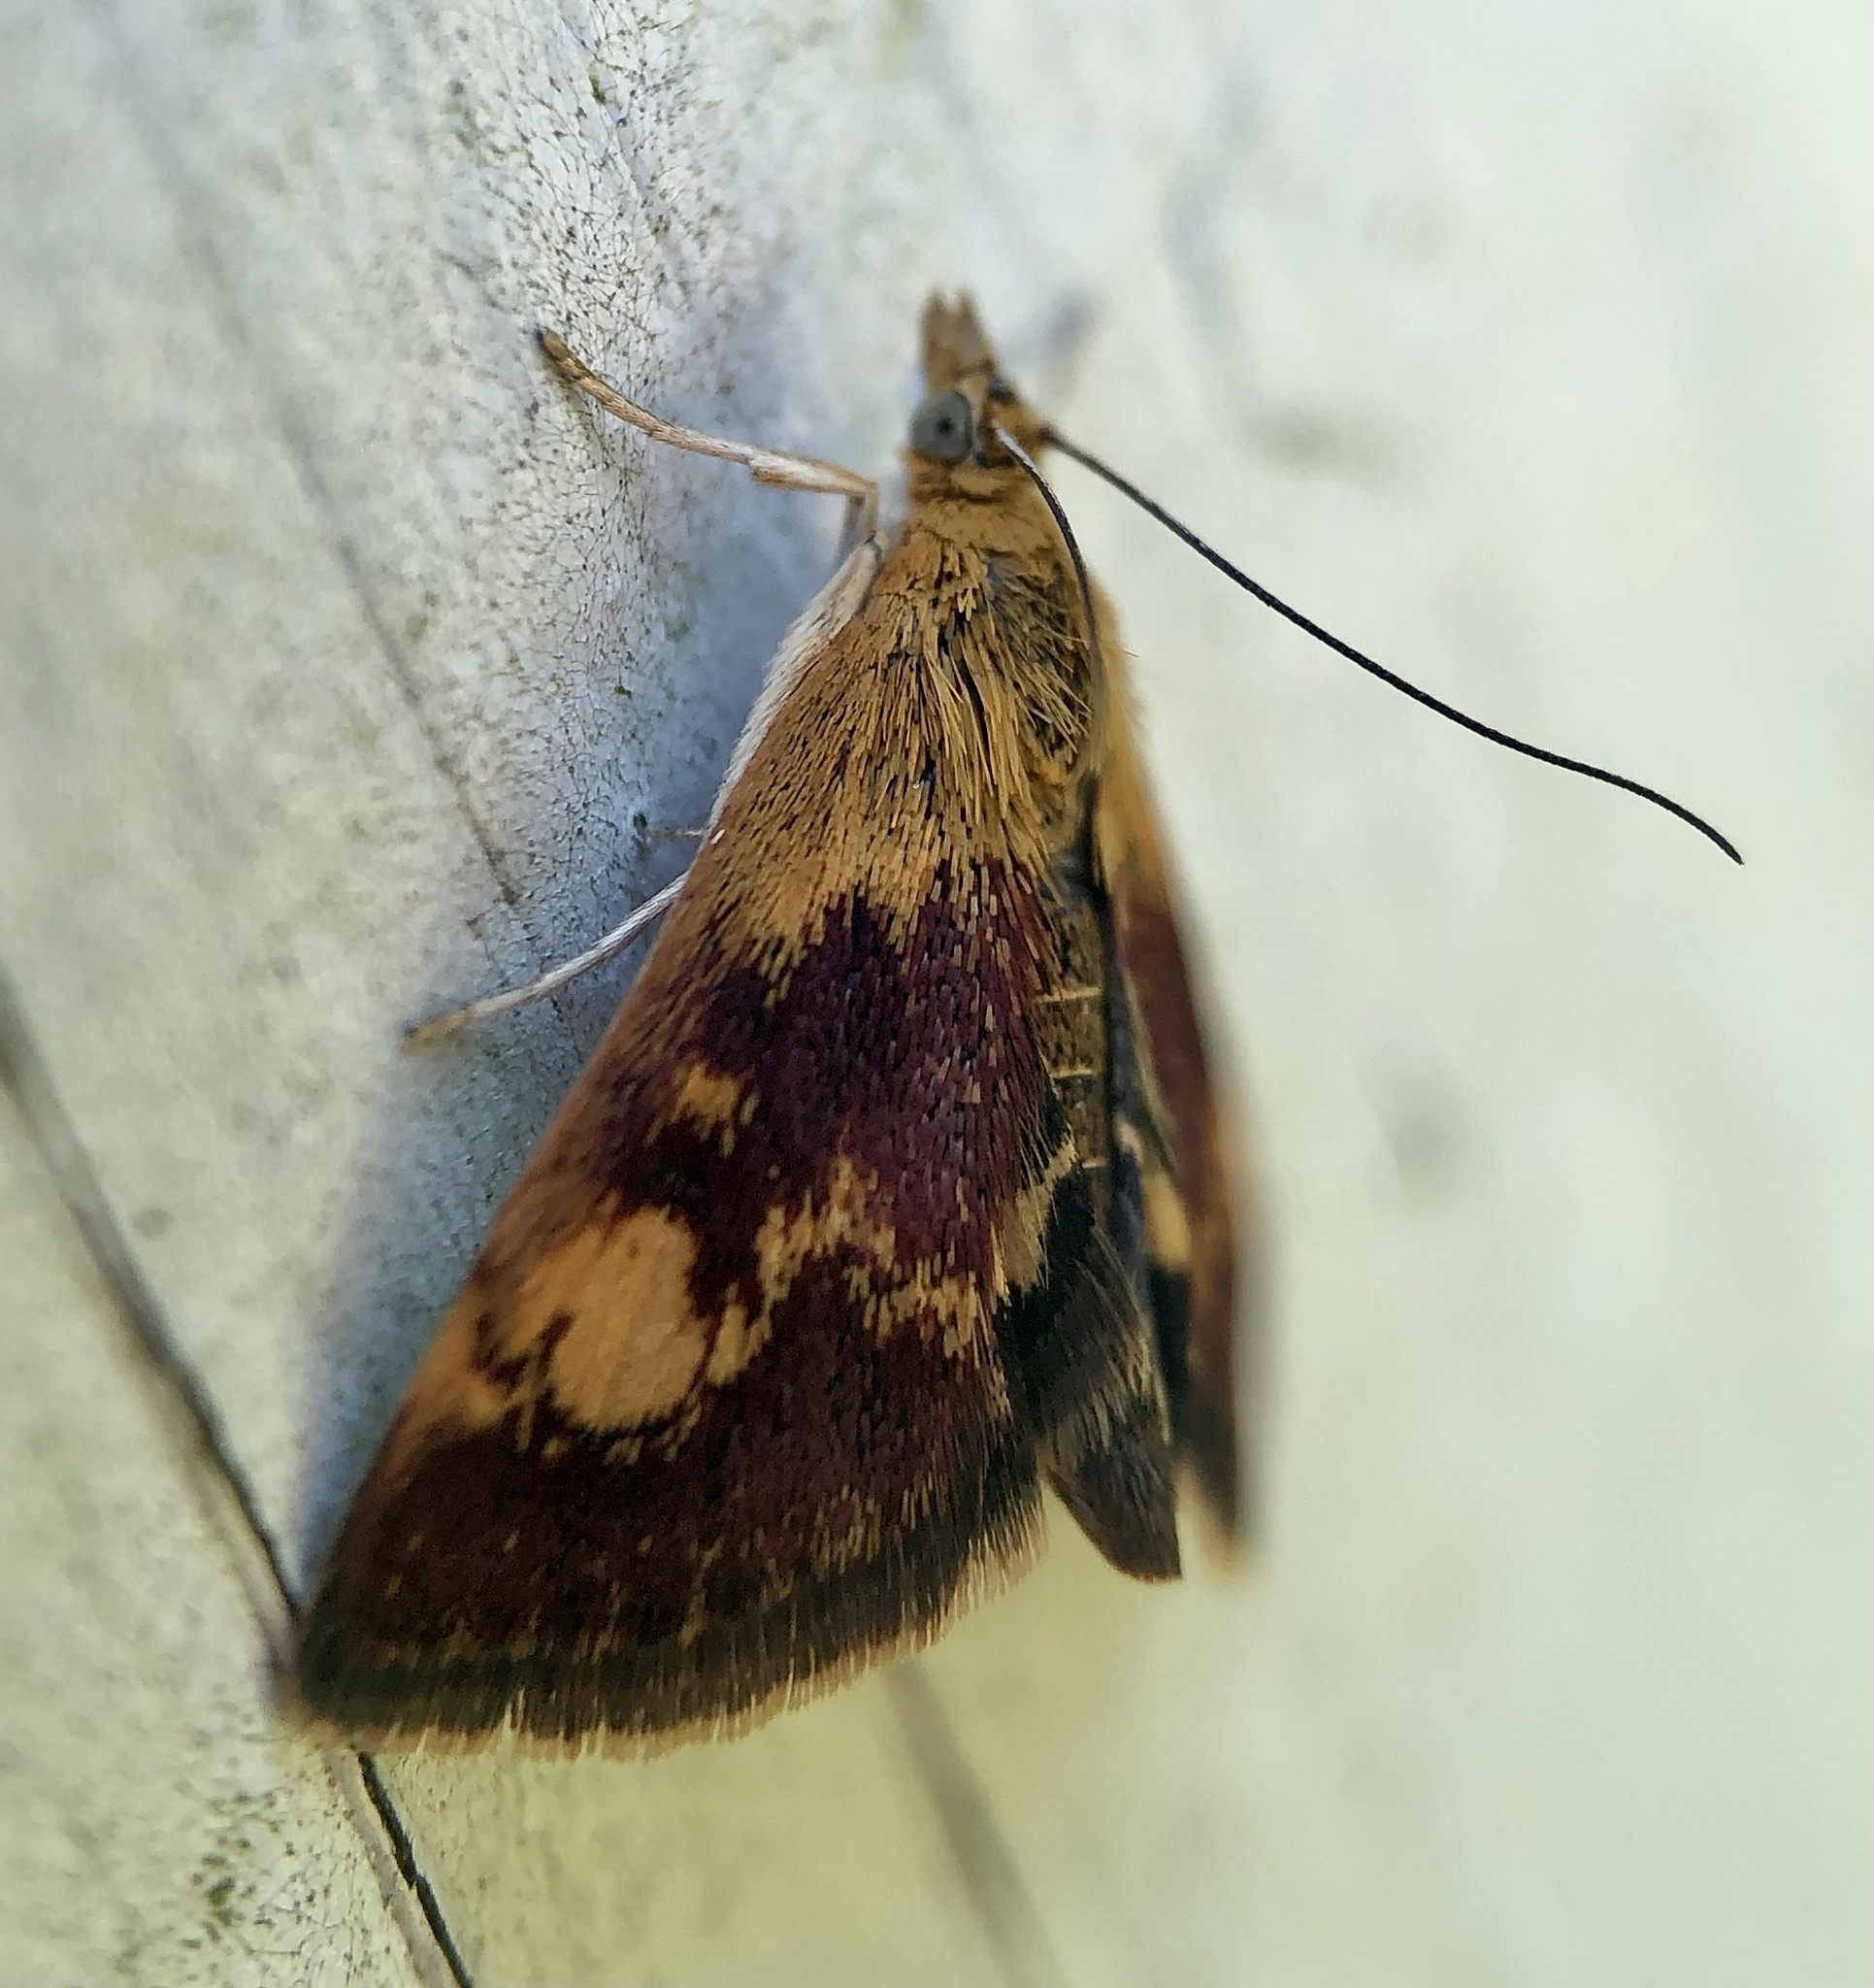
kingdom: Animalia
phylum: Arthropoda
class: Insecta
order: Lepidoptera
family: Crambidae
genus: Pyrausta
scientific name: Pyrausta orphisalis
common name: Orange mint moth
